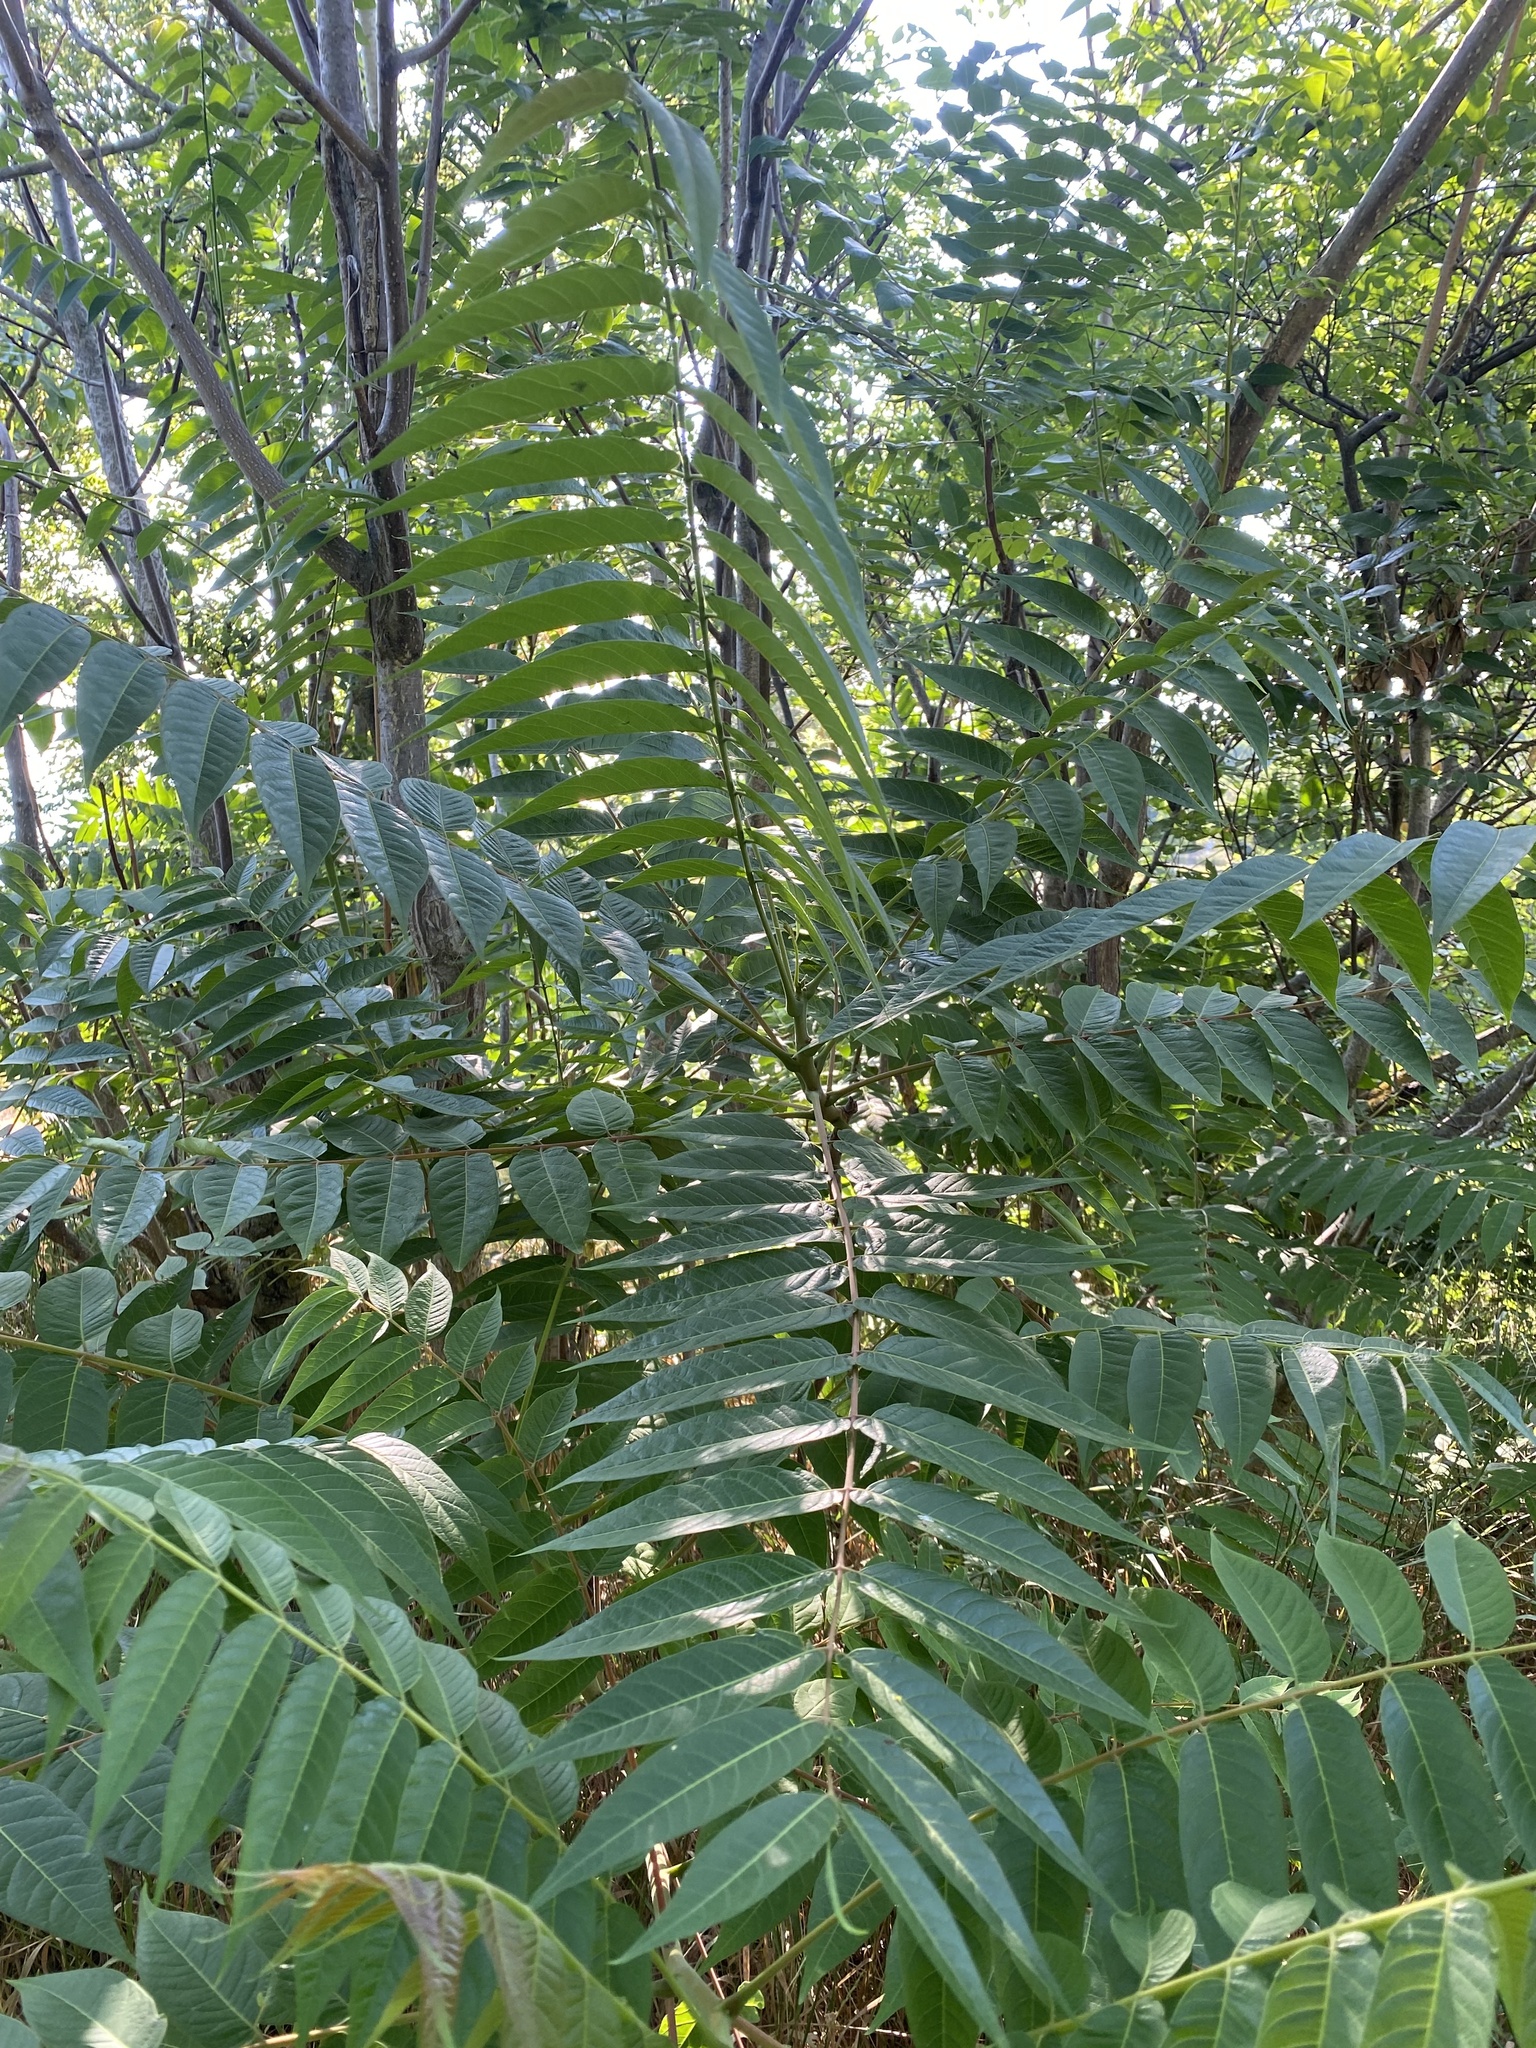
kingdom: Plantae
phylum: Tracheophyta
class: Magnoliopsida
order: Sapindales
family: Simaroubaceae
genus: Ailanthus
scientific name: Ailanthus altissima
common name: Tree-of-heaven
